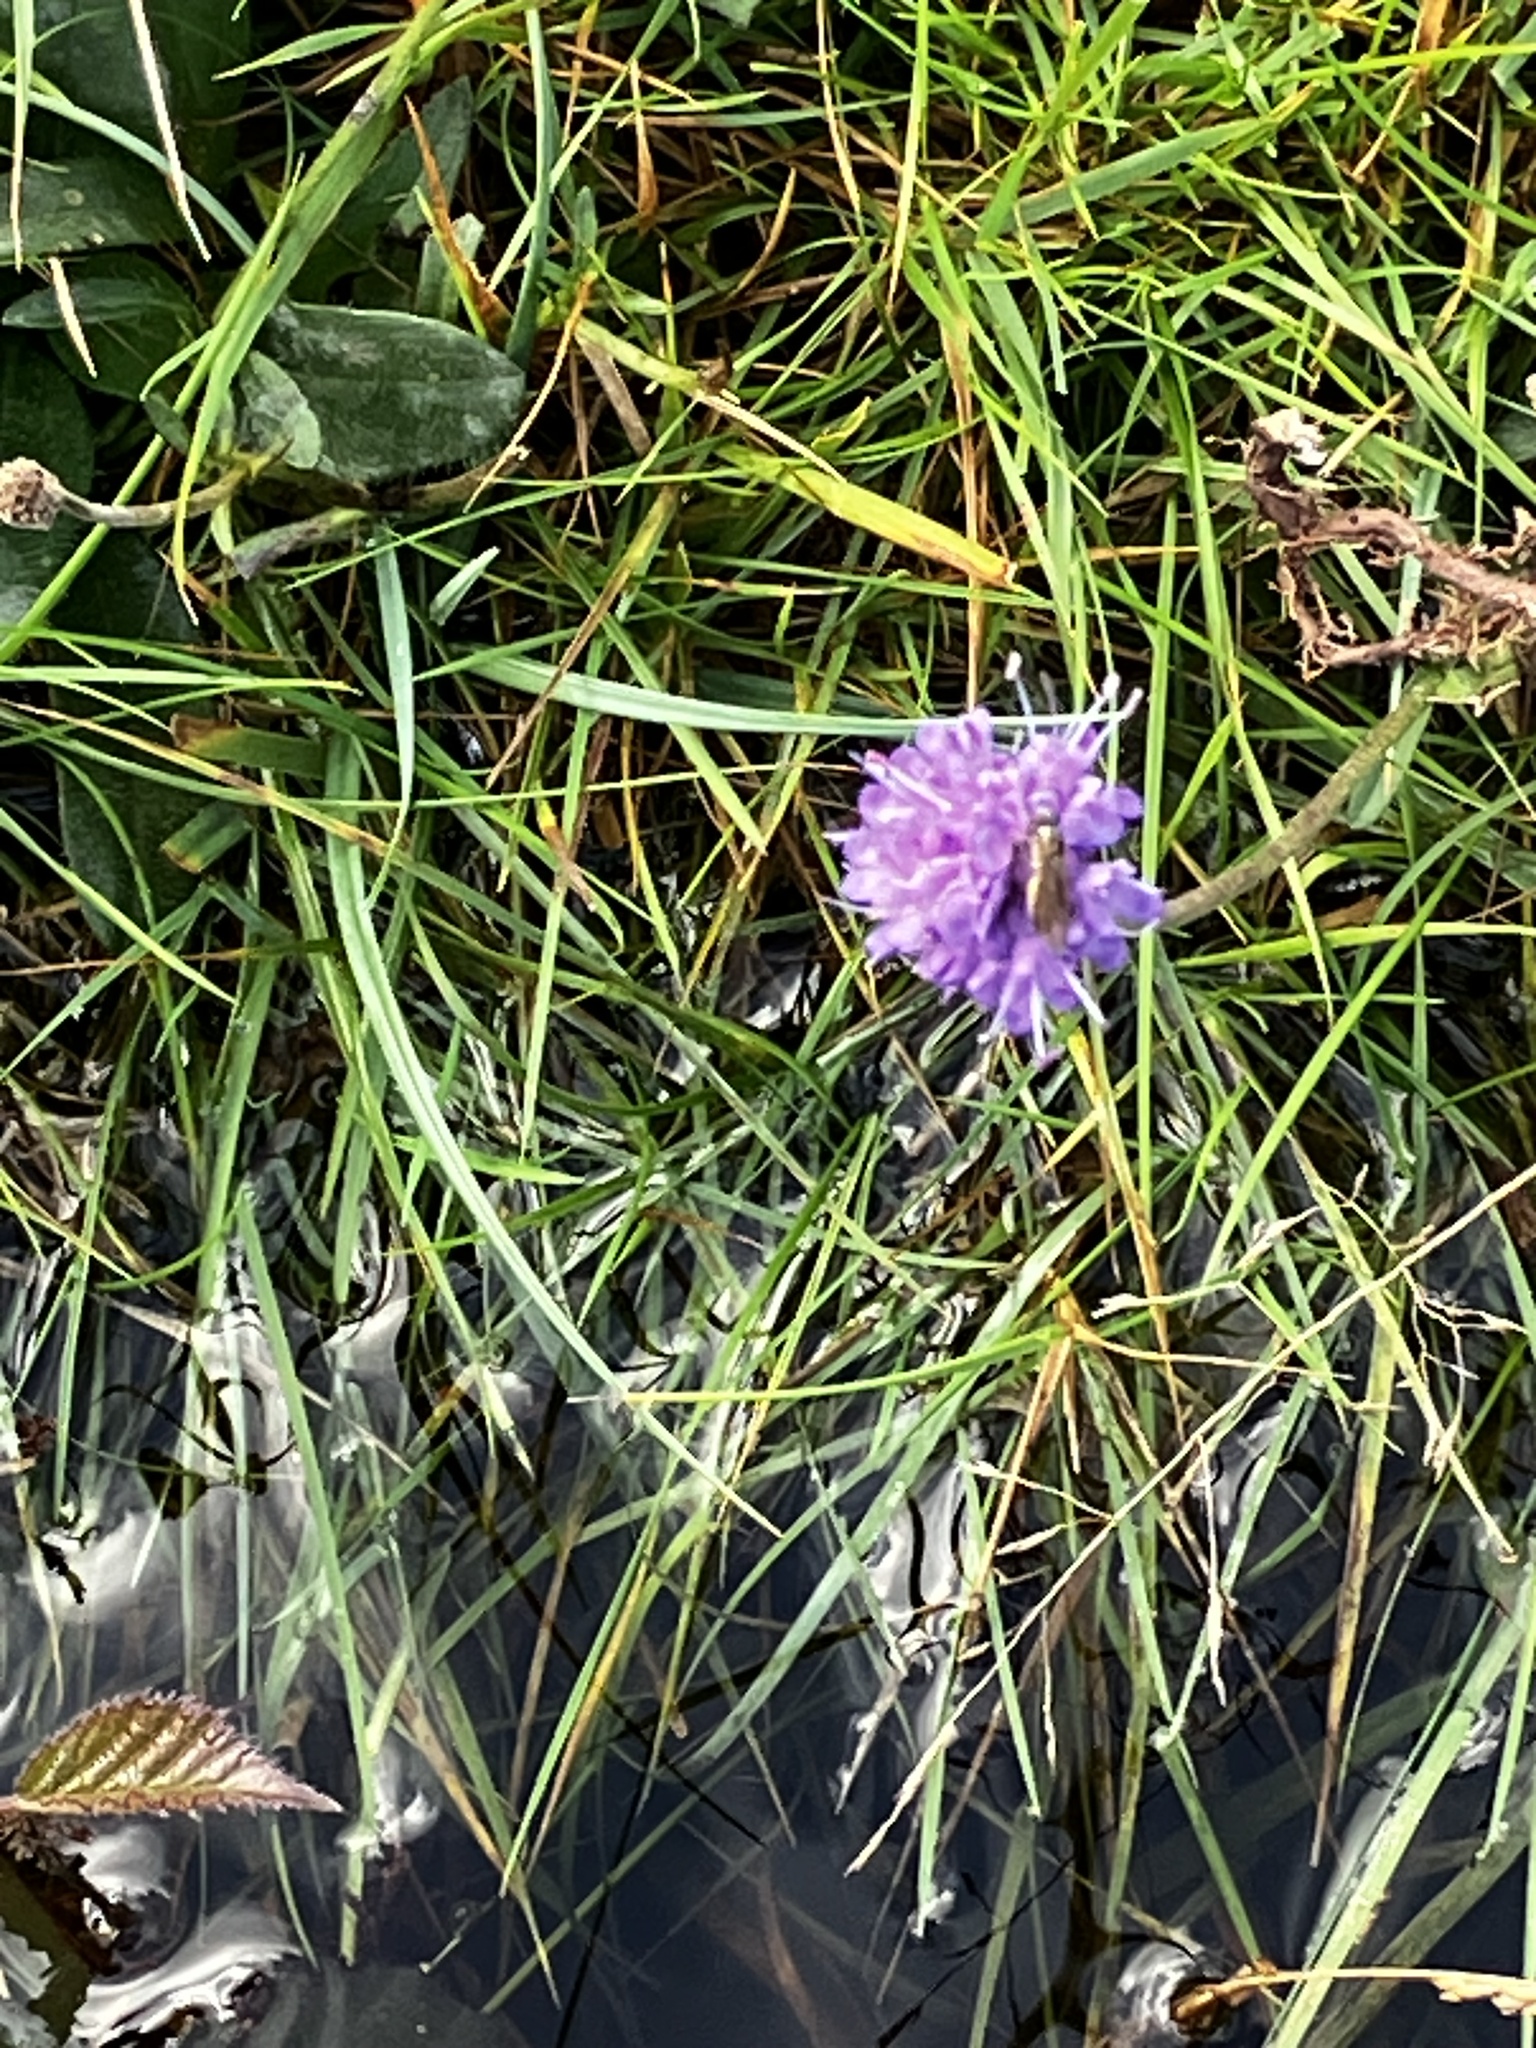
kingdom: Plantae
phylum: Tracheophyta
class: Magnoliopsida
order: Dipsacales
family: Caprifoliaceae
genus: Succisa
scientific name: Succisa pratensis
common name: Devil's-bit
